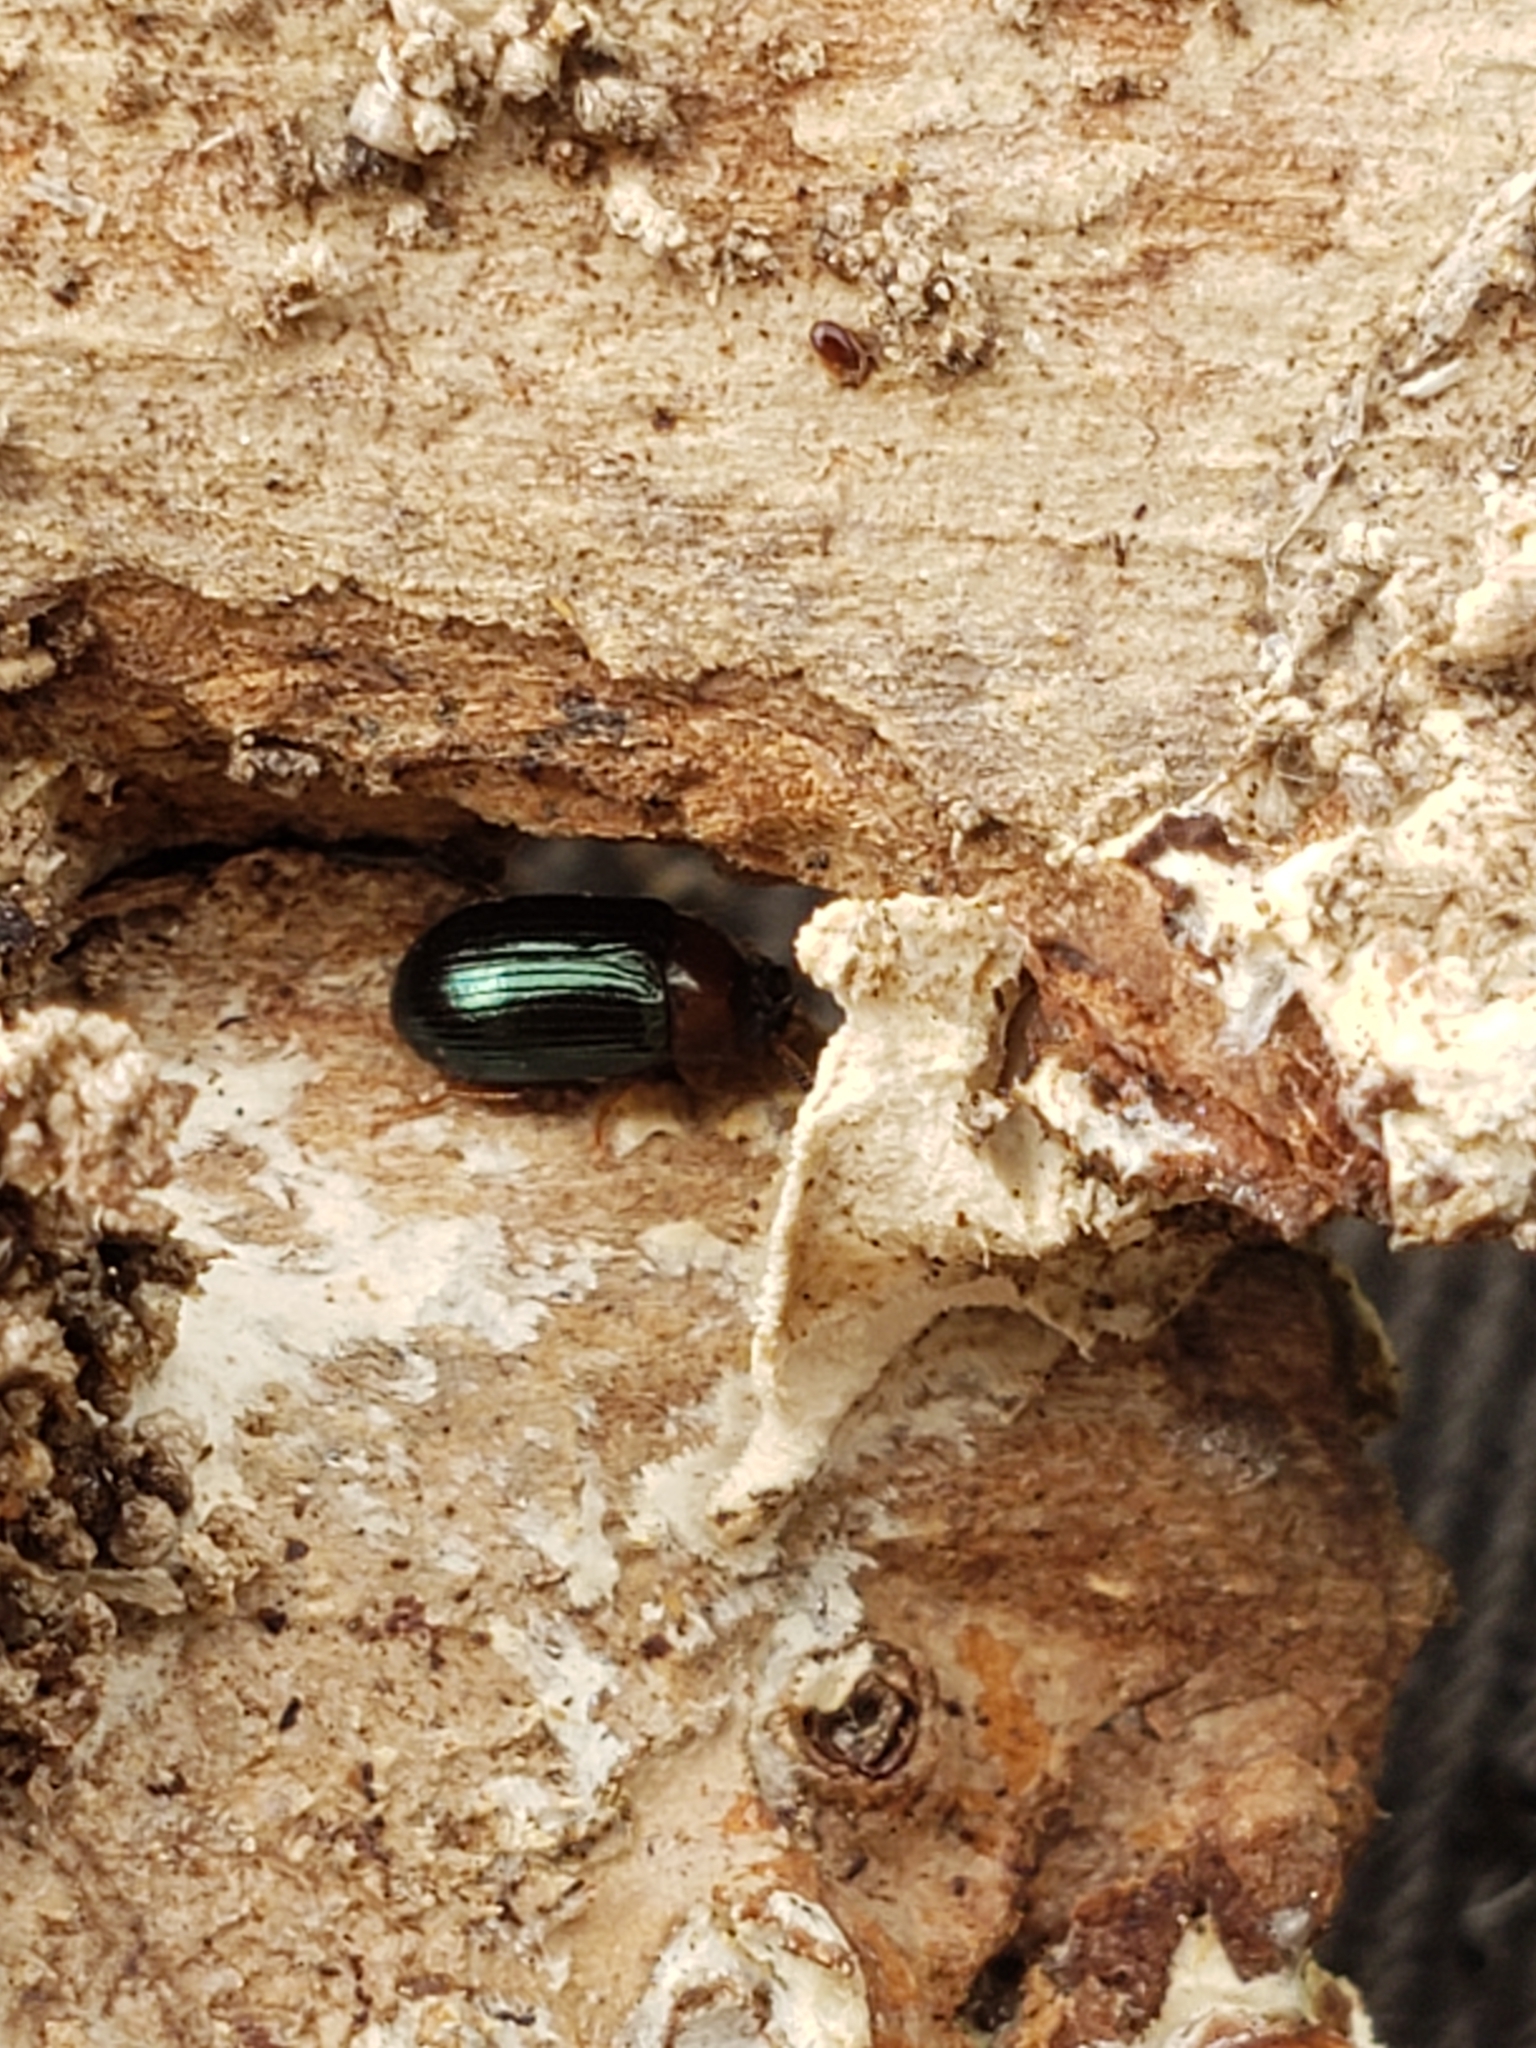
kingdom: Animalia
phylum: Arthropoda
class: Insecta
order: Coleoptera
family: Tenebrionidae
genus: Neomida
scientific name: Neomida bicornis
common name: Two-horned darkling beetle
